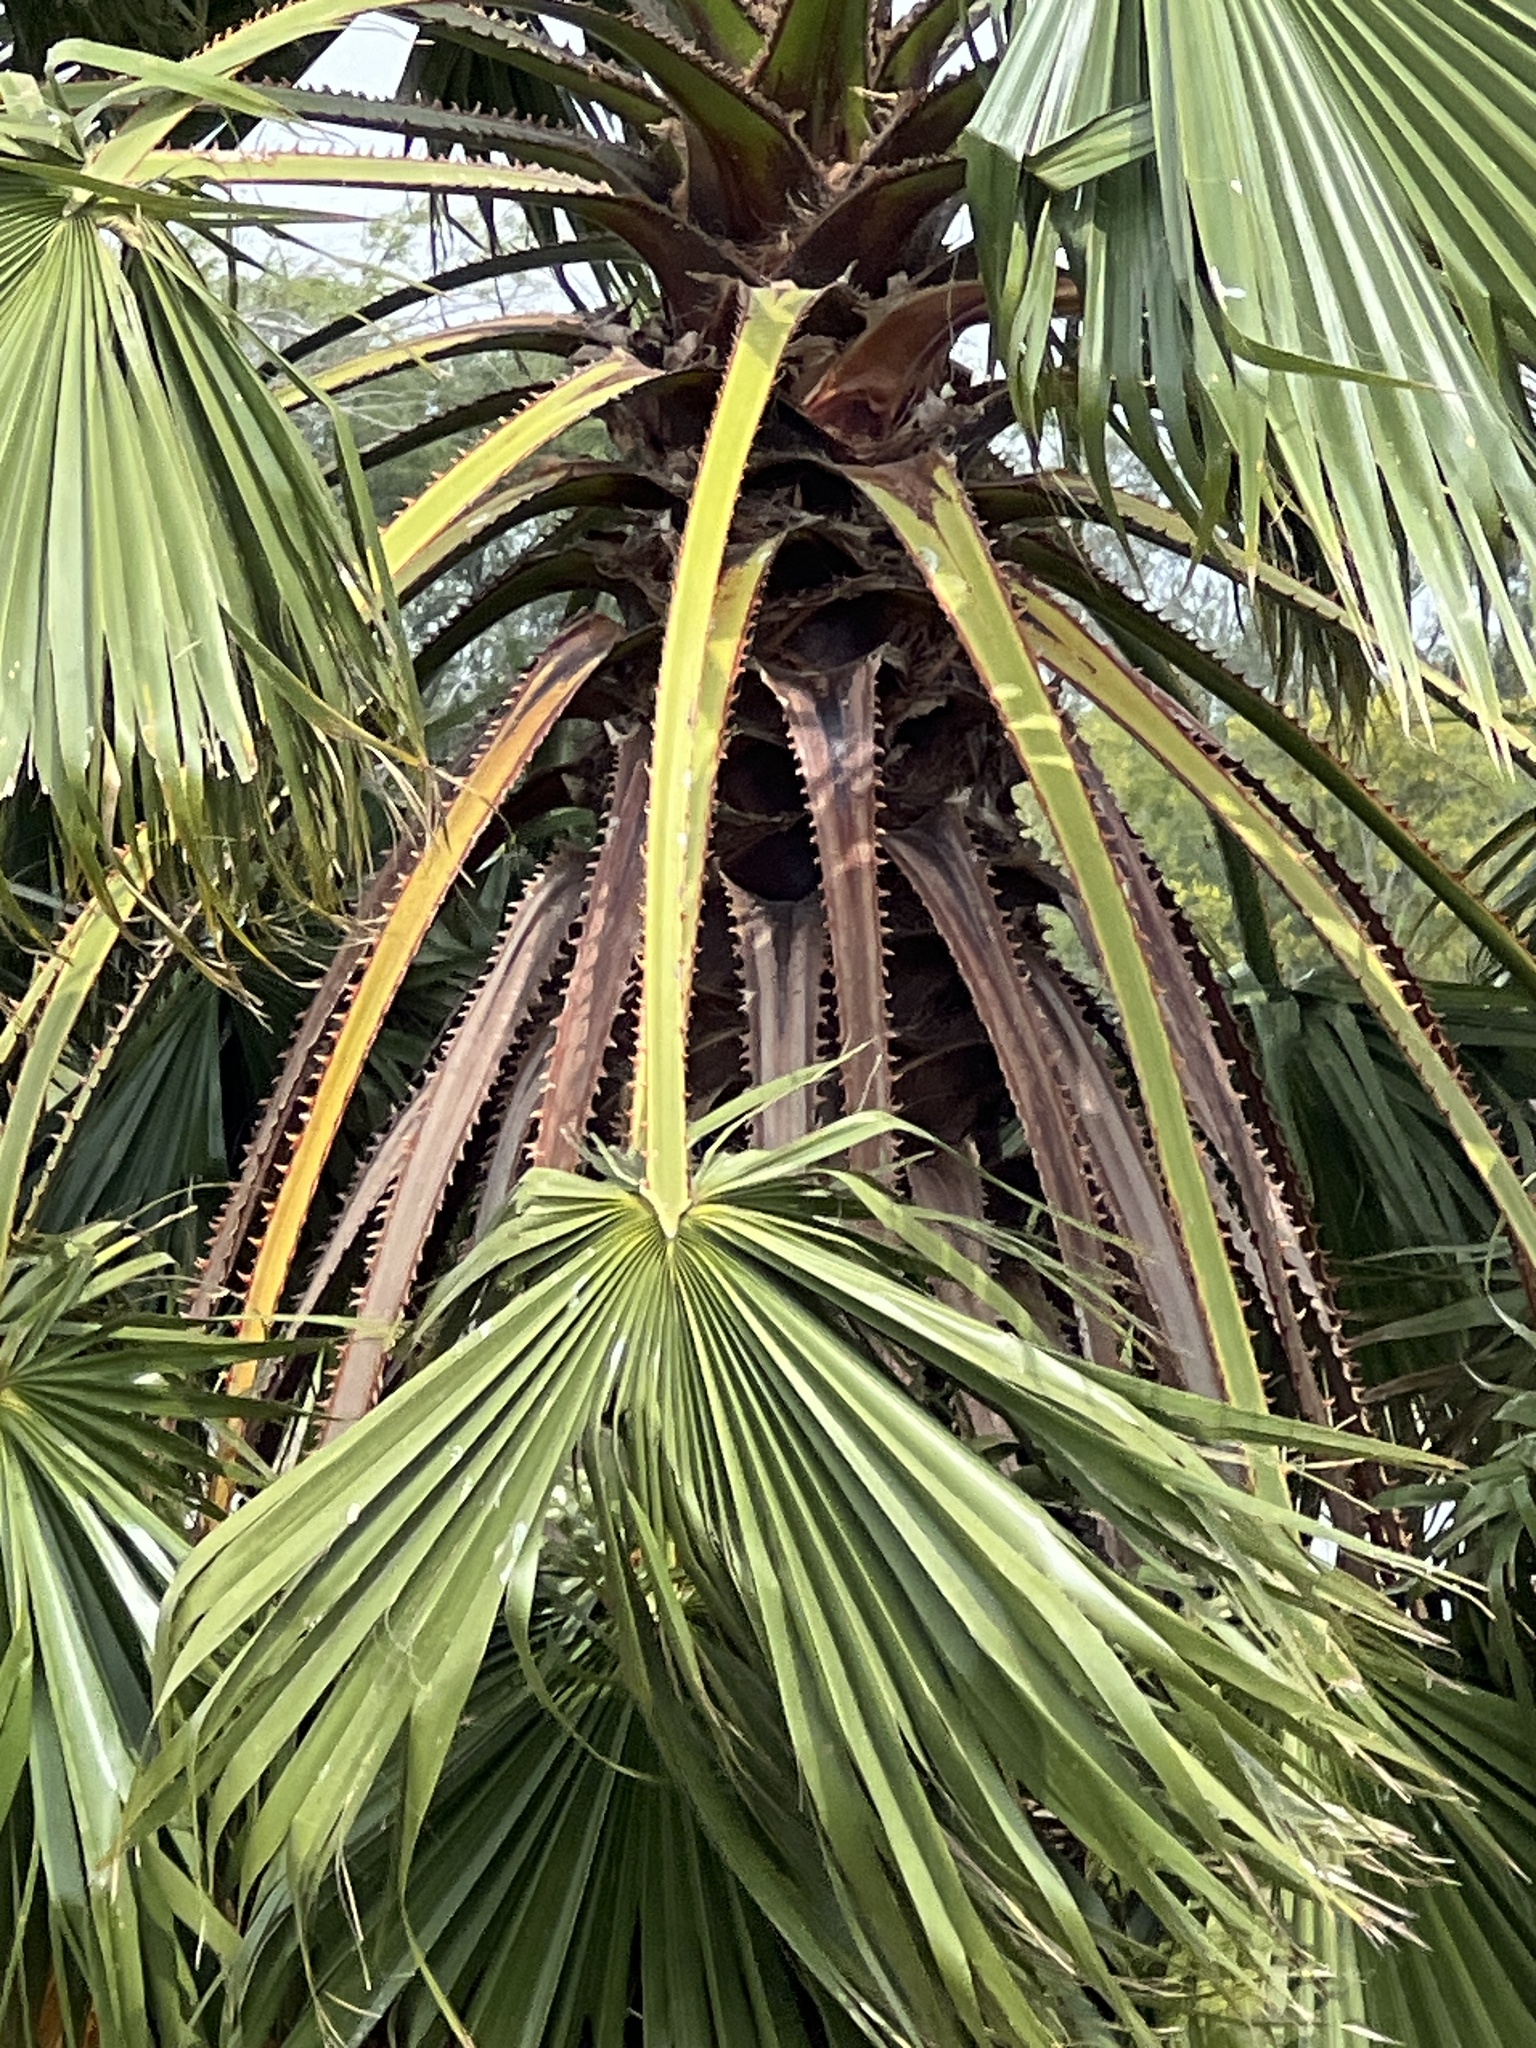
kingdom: Plantae
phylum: Tracheophyta
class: Liliopsida
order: Arecales
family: Arecaceae
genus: Washingtonia
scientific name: Washingtonia robusta
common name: Mexican fan palm
